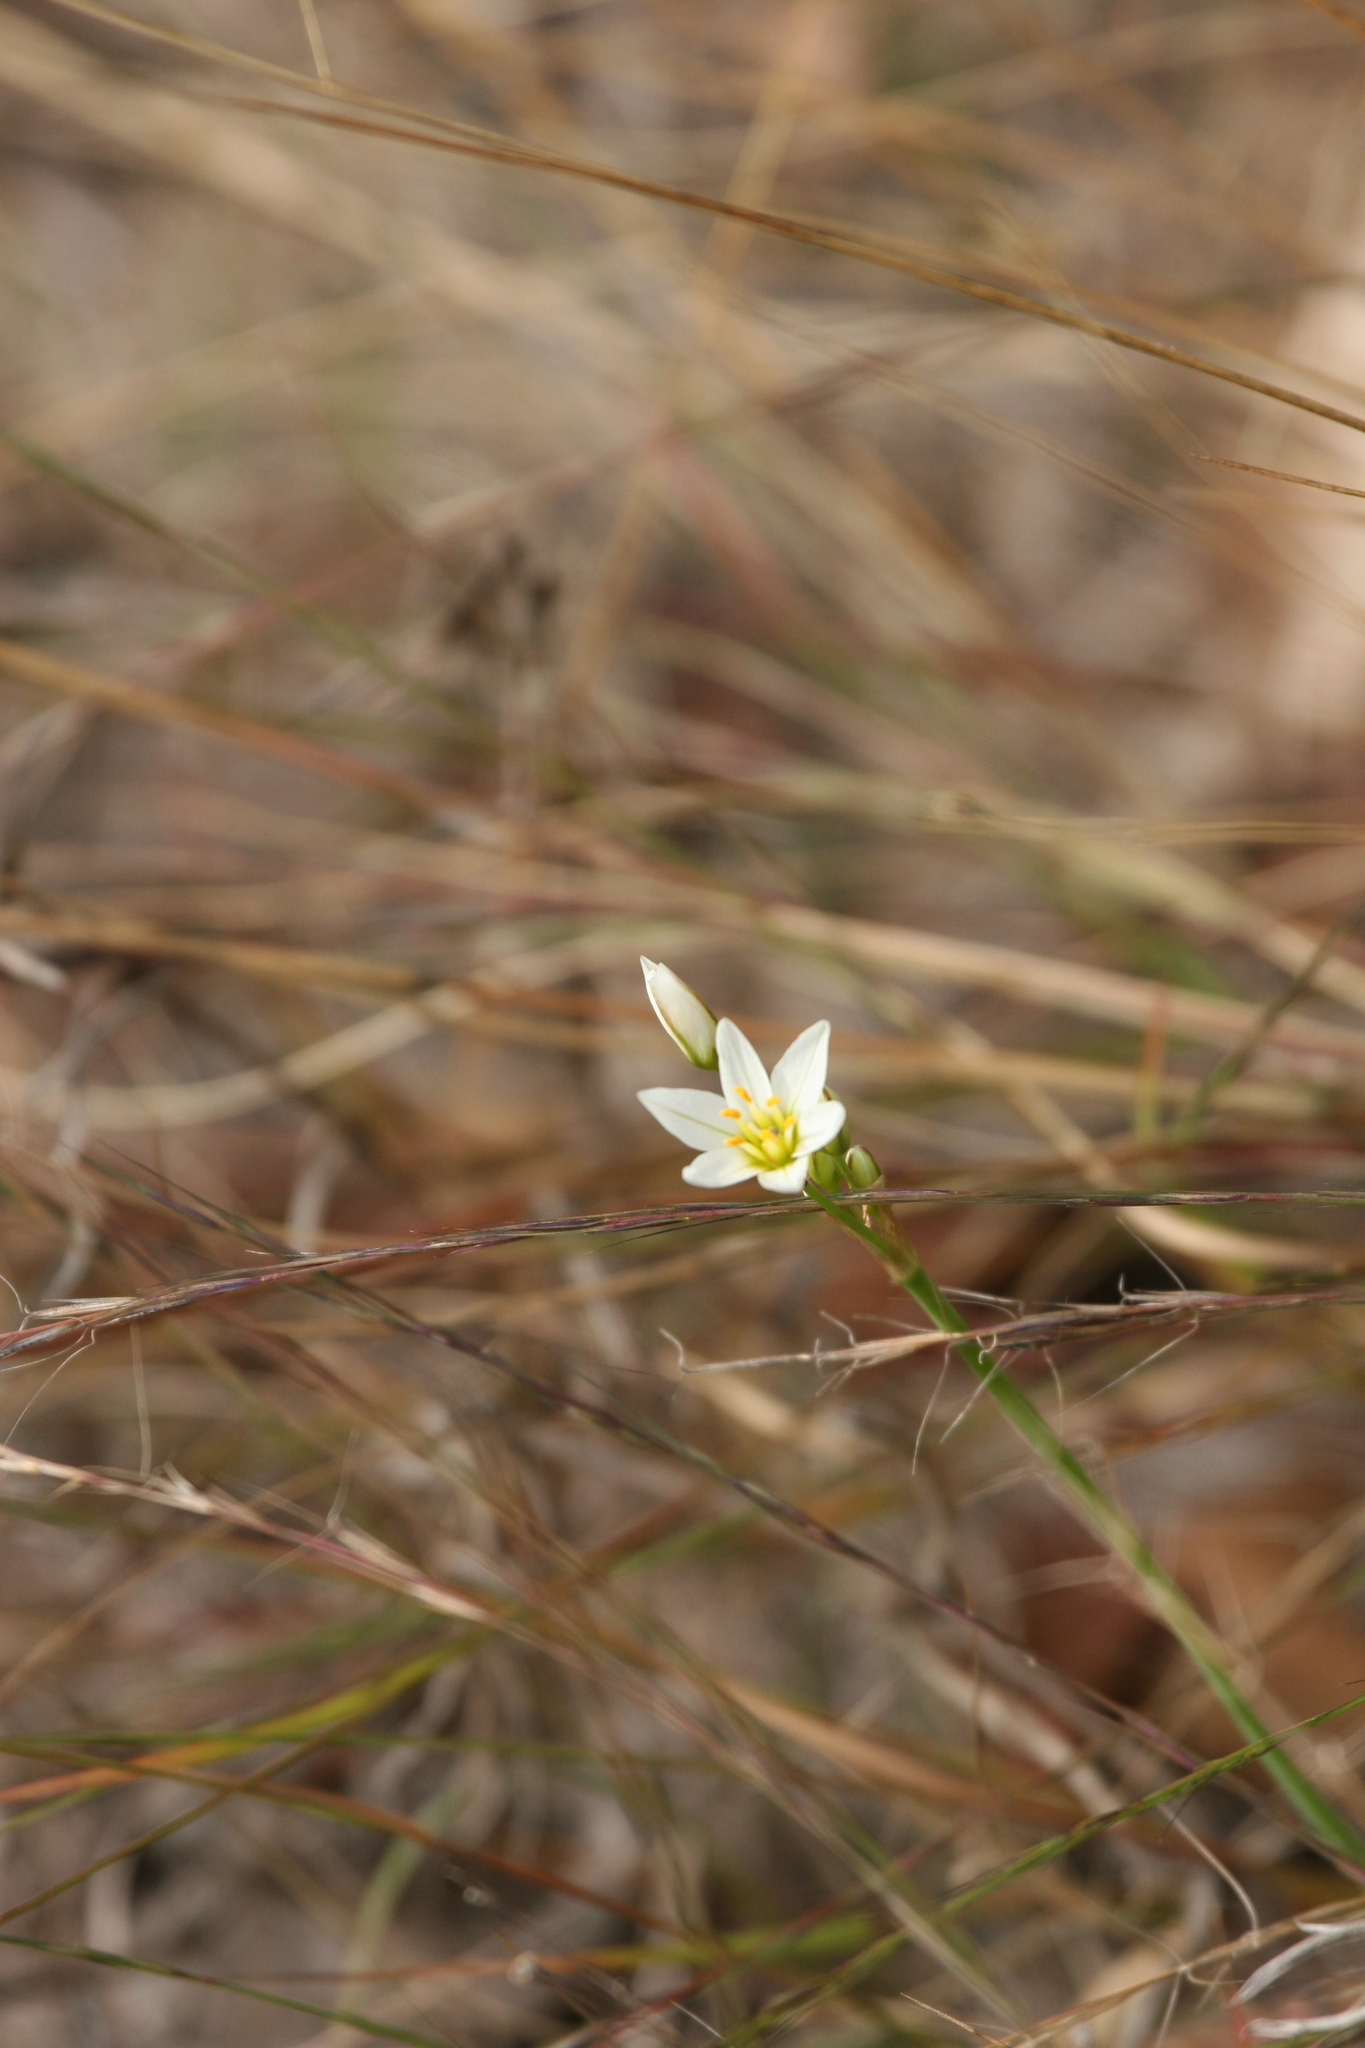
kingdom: Plantae
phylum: Tracheophyta
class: Liliopsida
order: Asparagales
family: Amaryllidaceae
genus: Nothoscordum
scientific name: Nothoscordum bivalve
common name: Crow-poison
